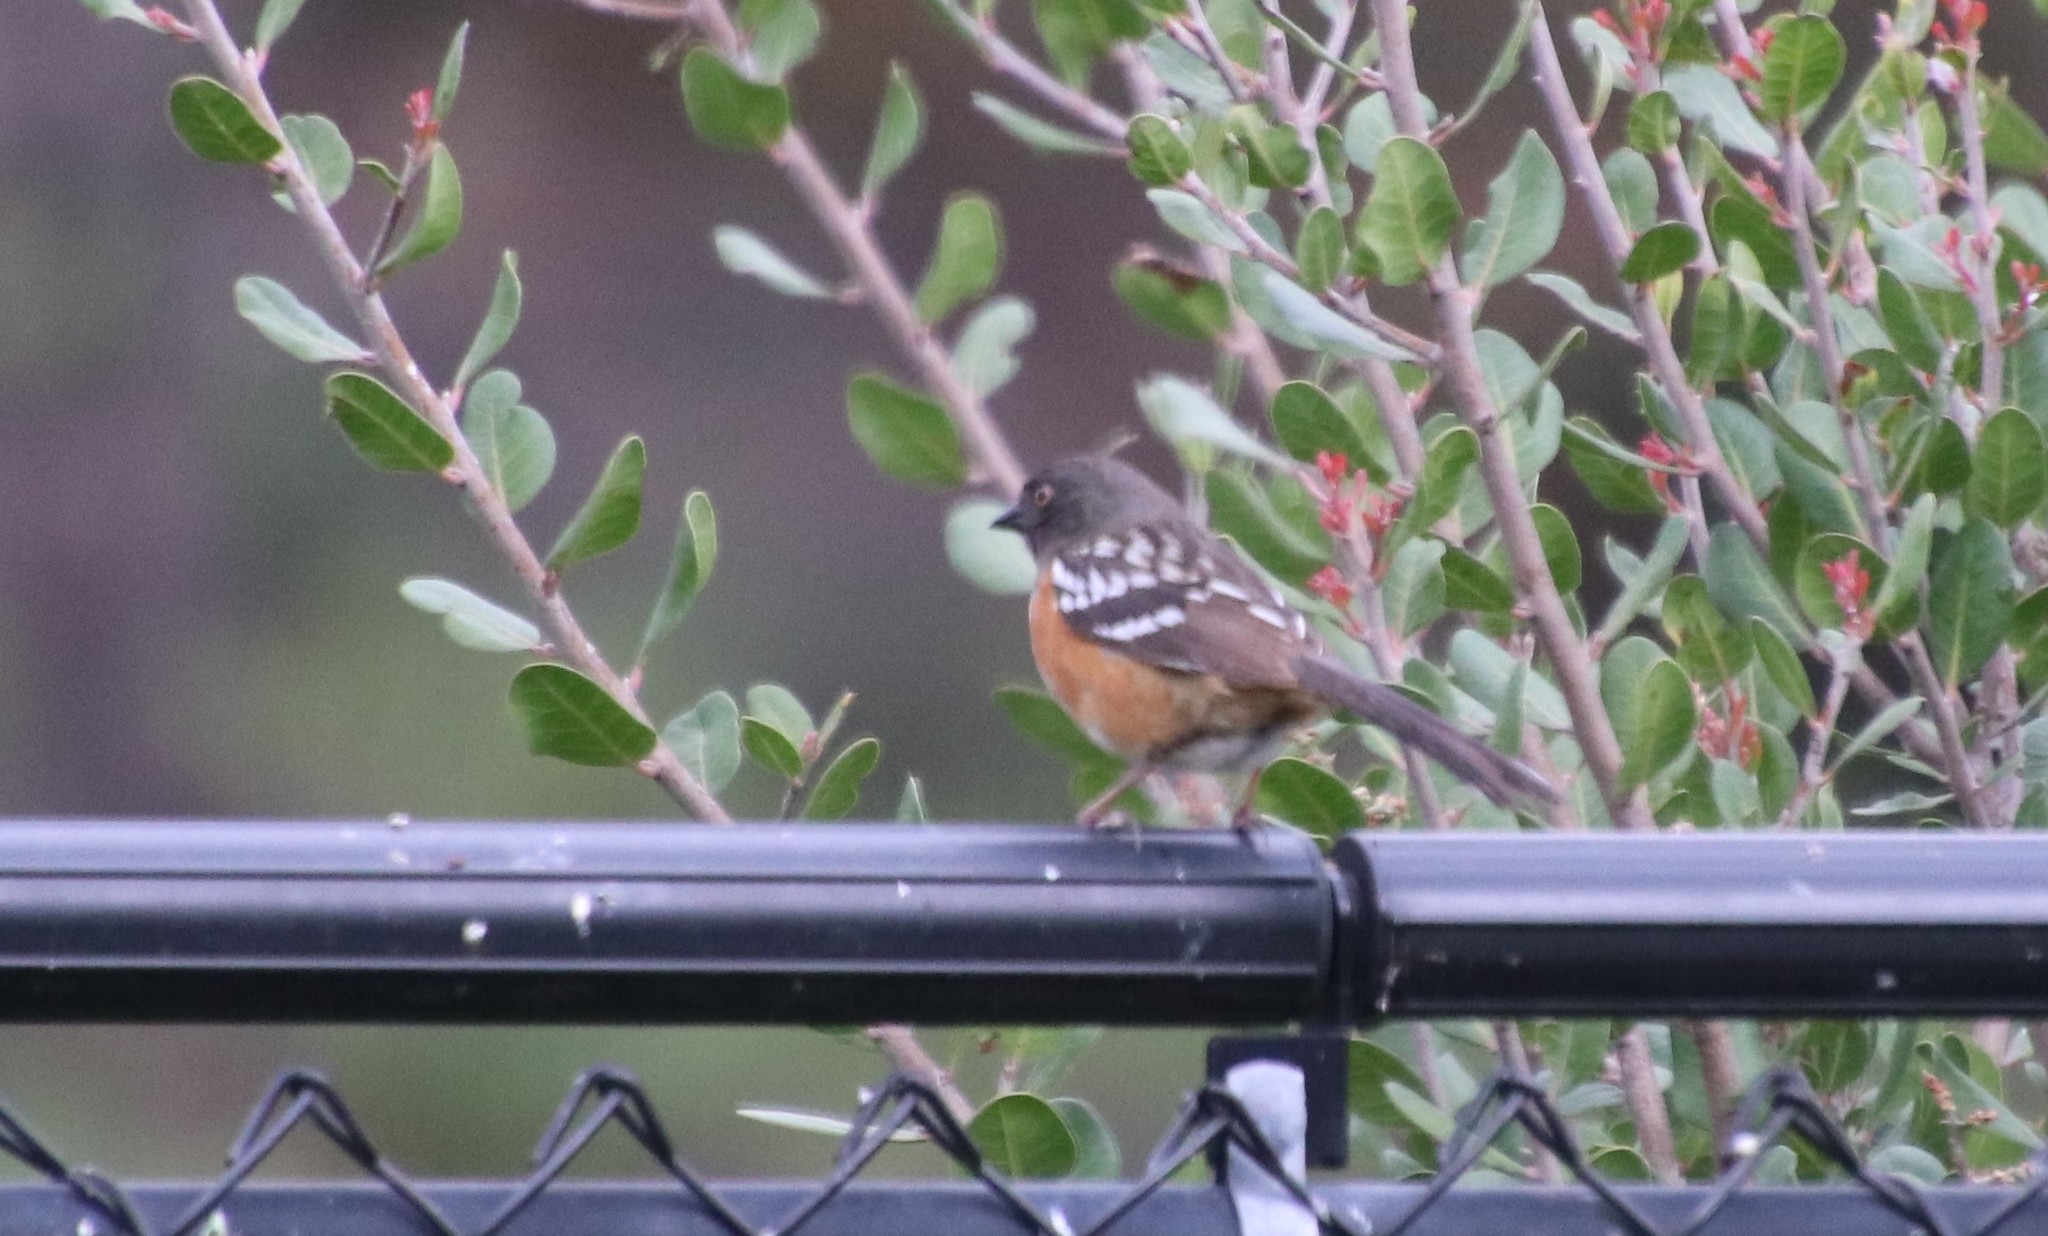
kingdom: Animalia
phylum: Chordata
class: Aves
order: Passeriformes
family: Passerellidae
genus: Pipilo
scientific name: Pipilo maculatus
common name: Spotted towhee
